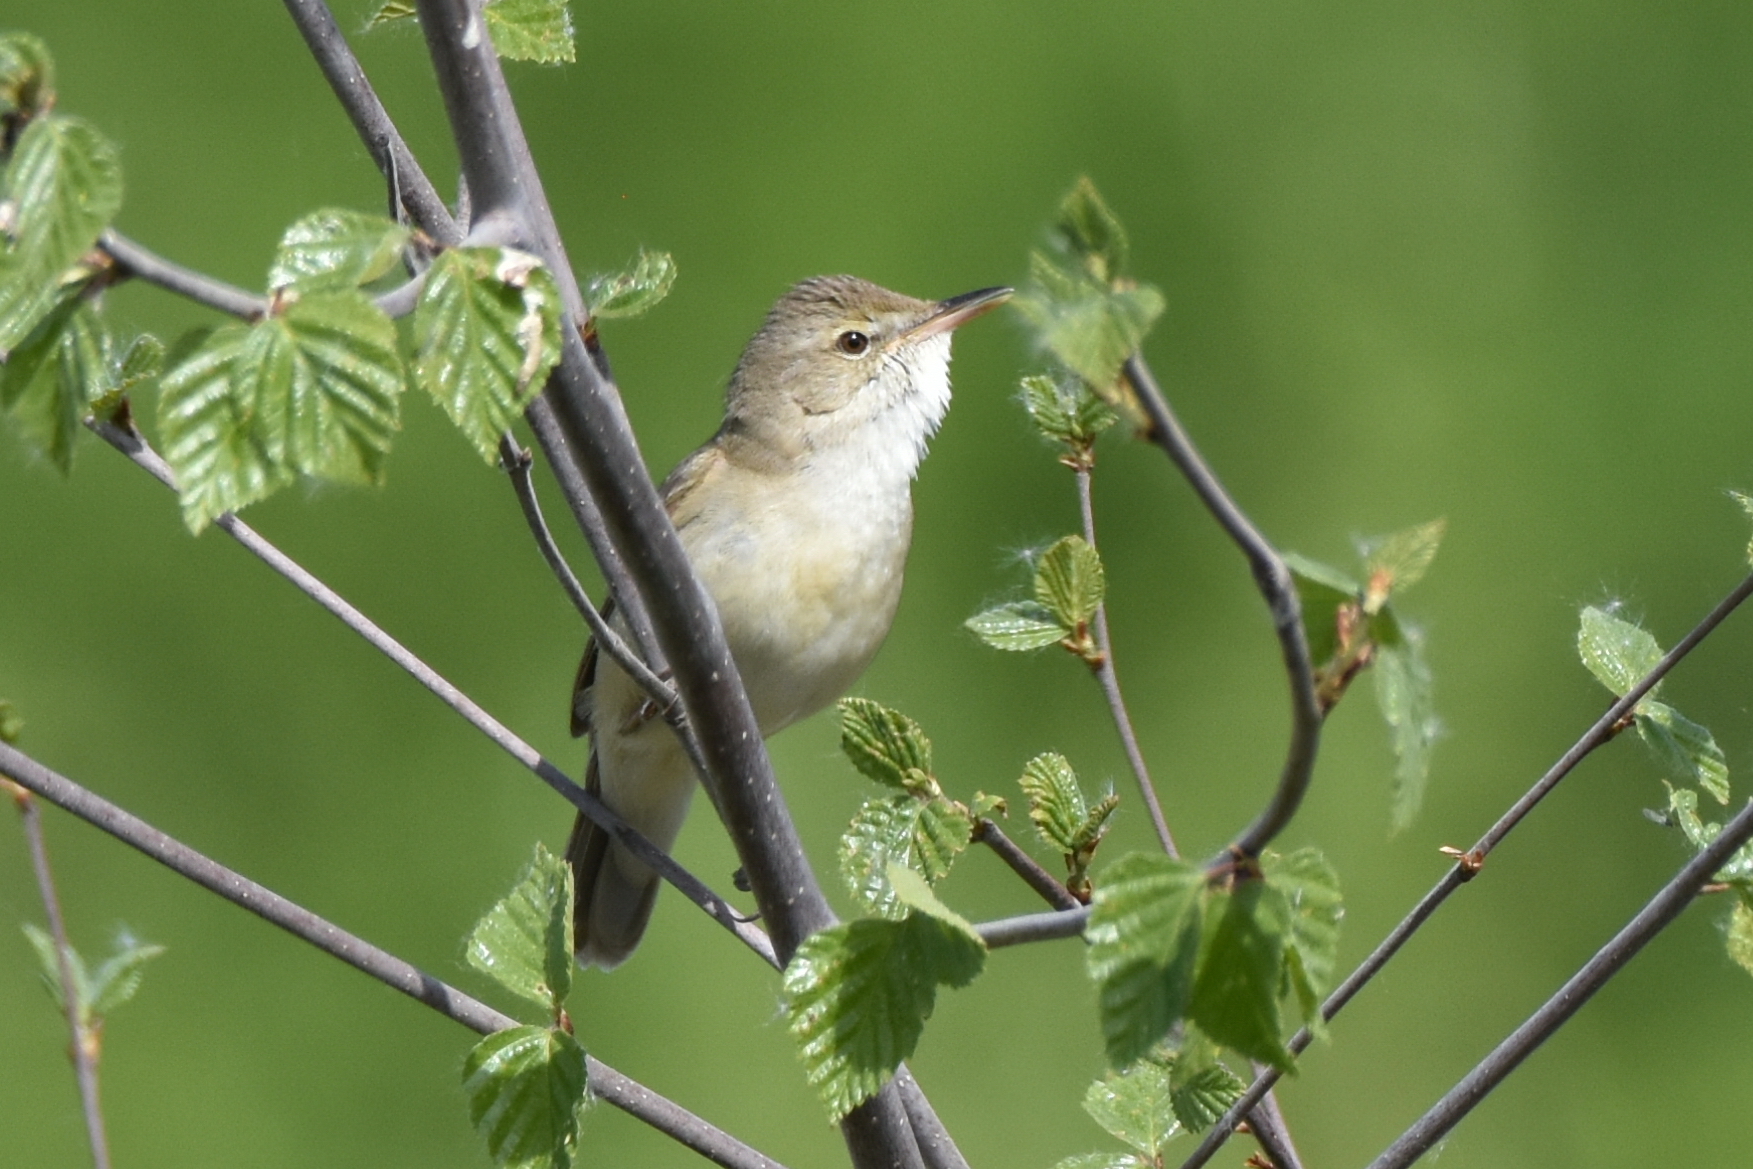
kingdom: Animalia
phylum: Chordata
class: Aves
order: Passeriformes
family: Acrocephalidae
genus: Acrocephalus
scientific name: Acrocephalus dumetorum
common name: Blyth's reed warbler
